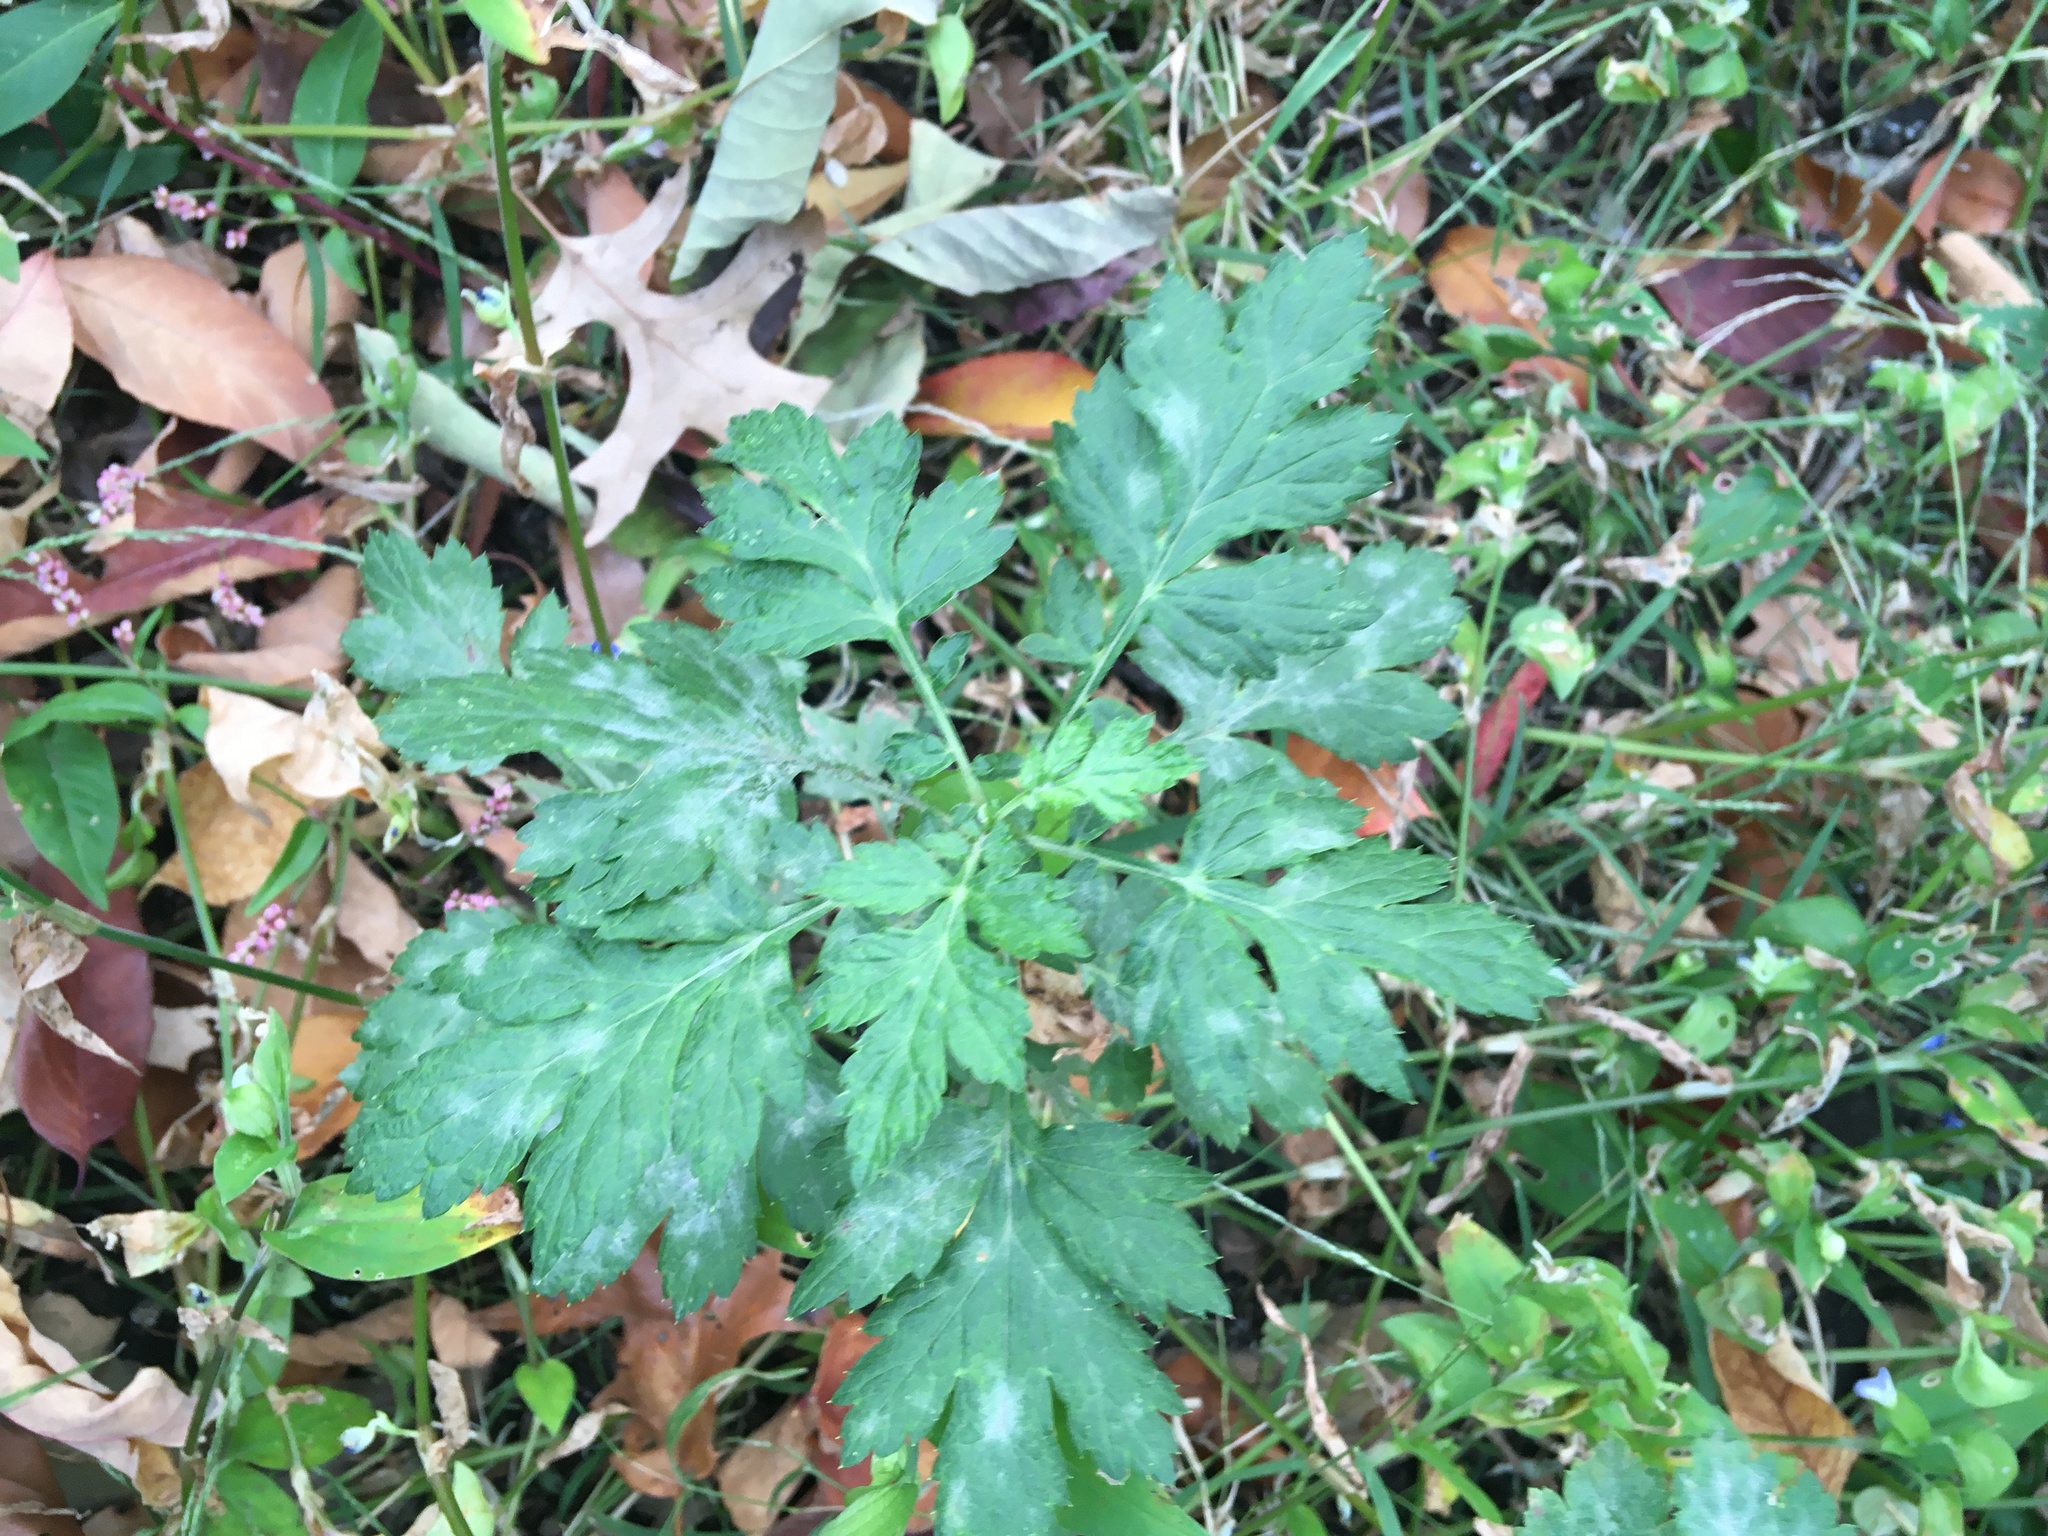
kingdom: Plantae
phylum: Tracheophyta
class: Magnoliopsida
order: Asterales
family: Asteraceae
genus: Artemisia
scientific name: Artemisia vulgaris
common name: Mugwort
